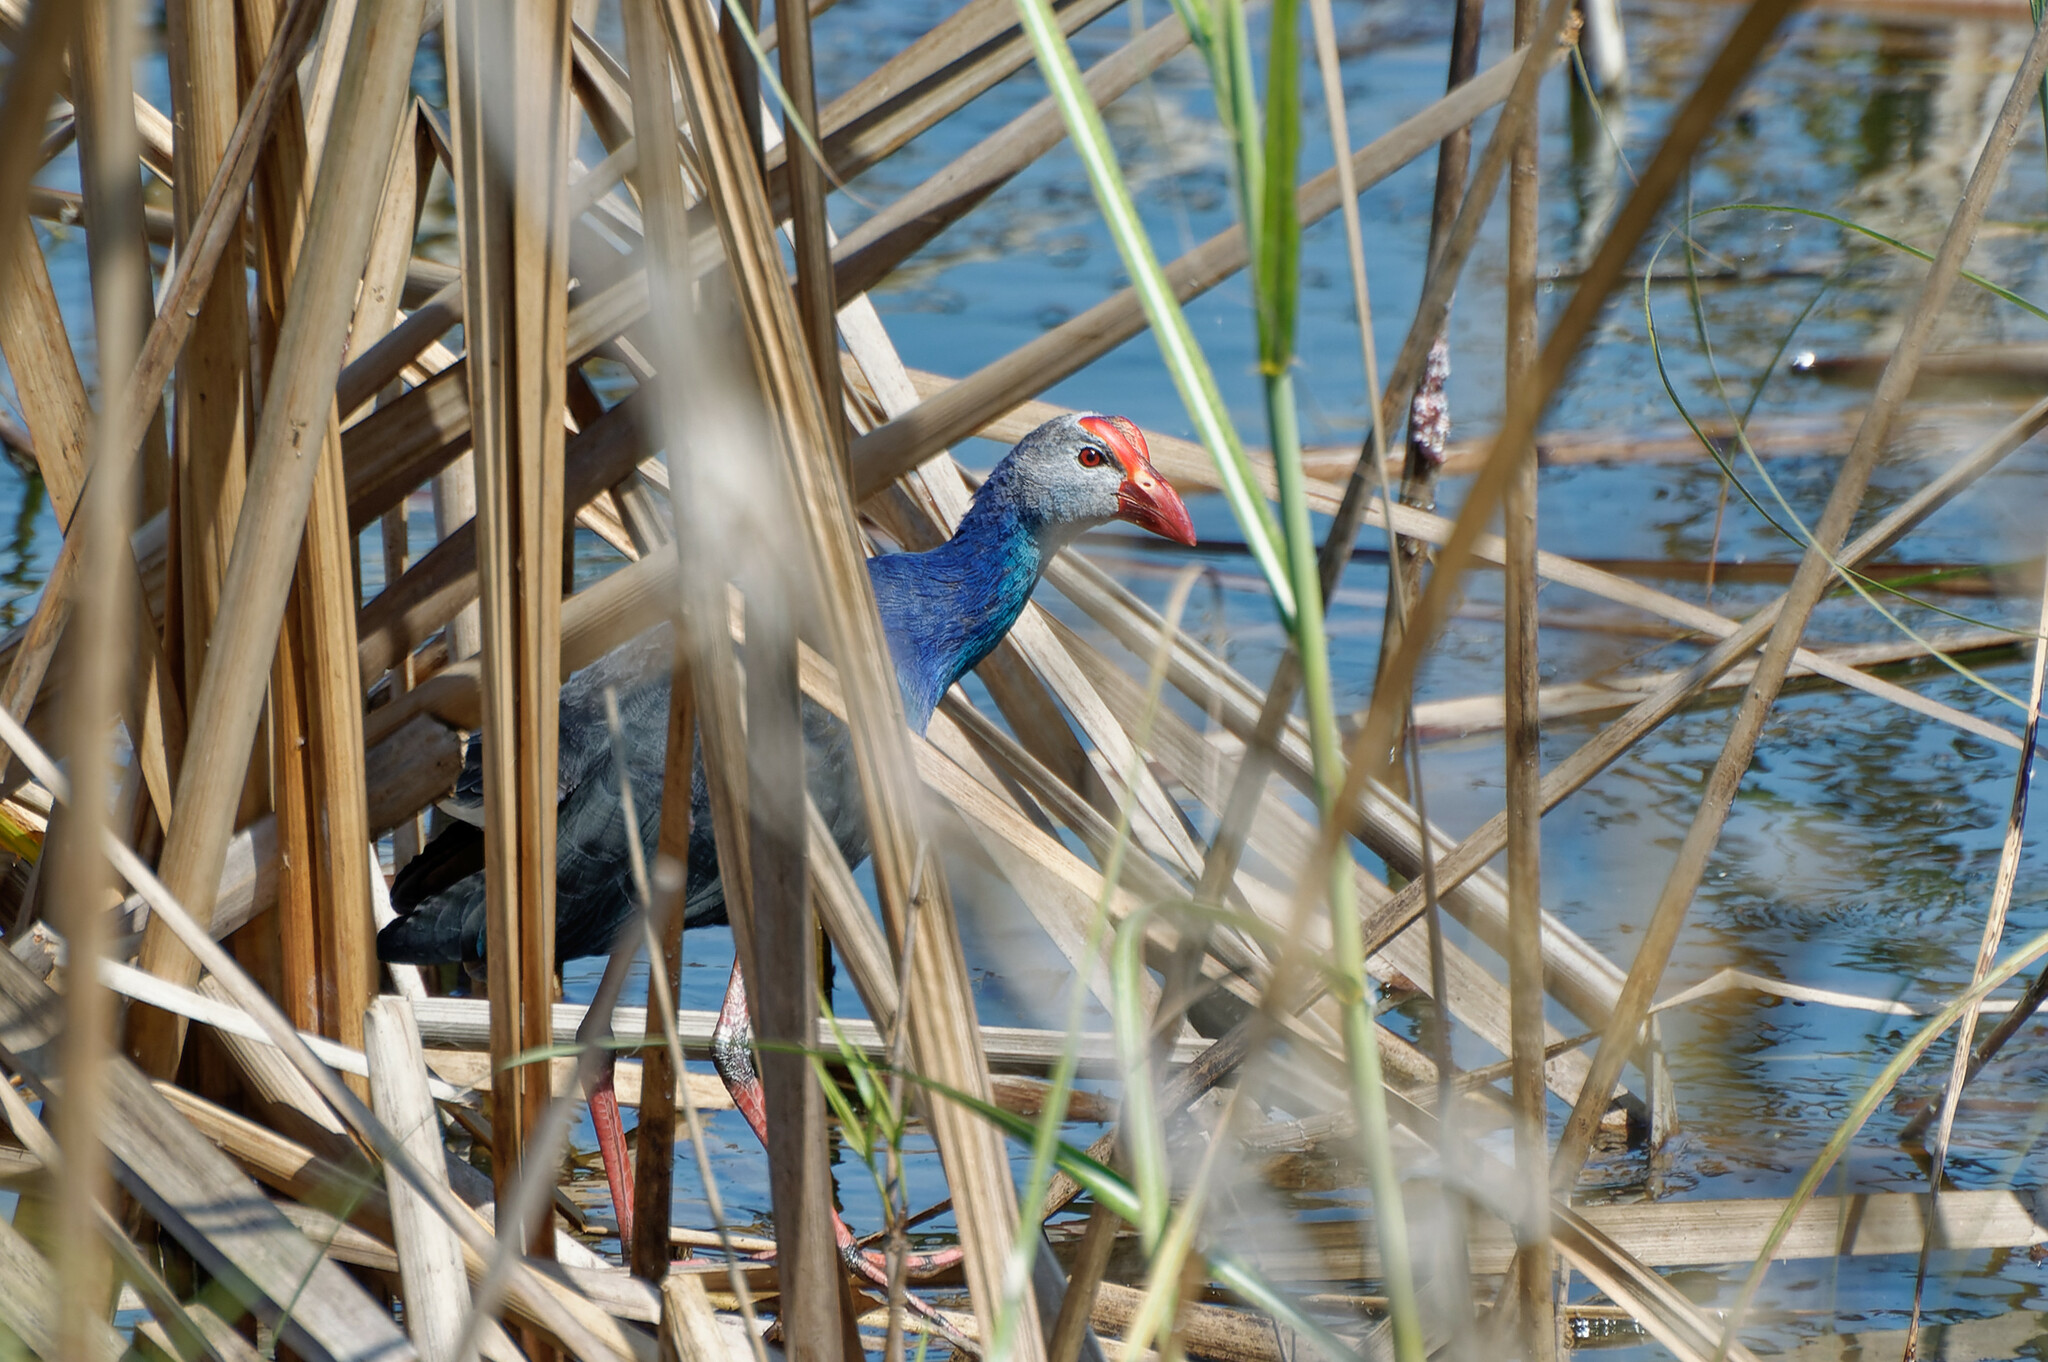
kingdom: Animalia
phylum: Chordata
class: Aves
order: Gruiformes
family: Rallidae
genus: Porphyrio
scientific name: Porphyrio porphyrio
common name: Purple swamphen
